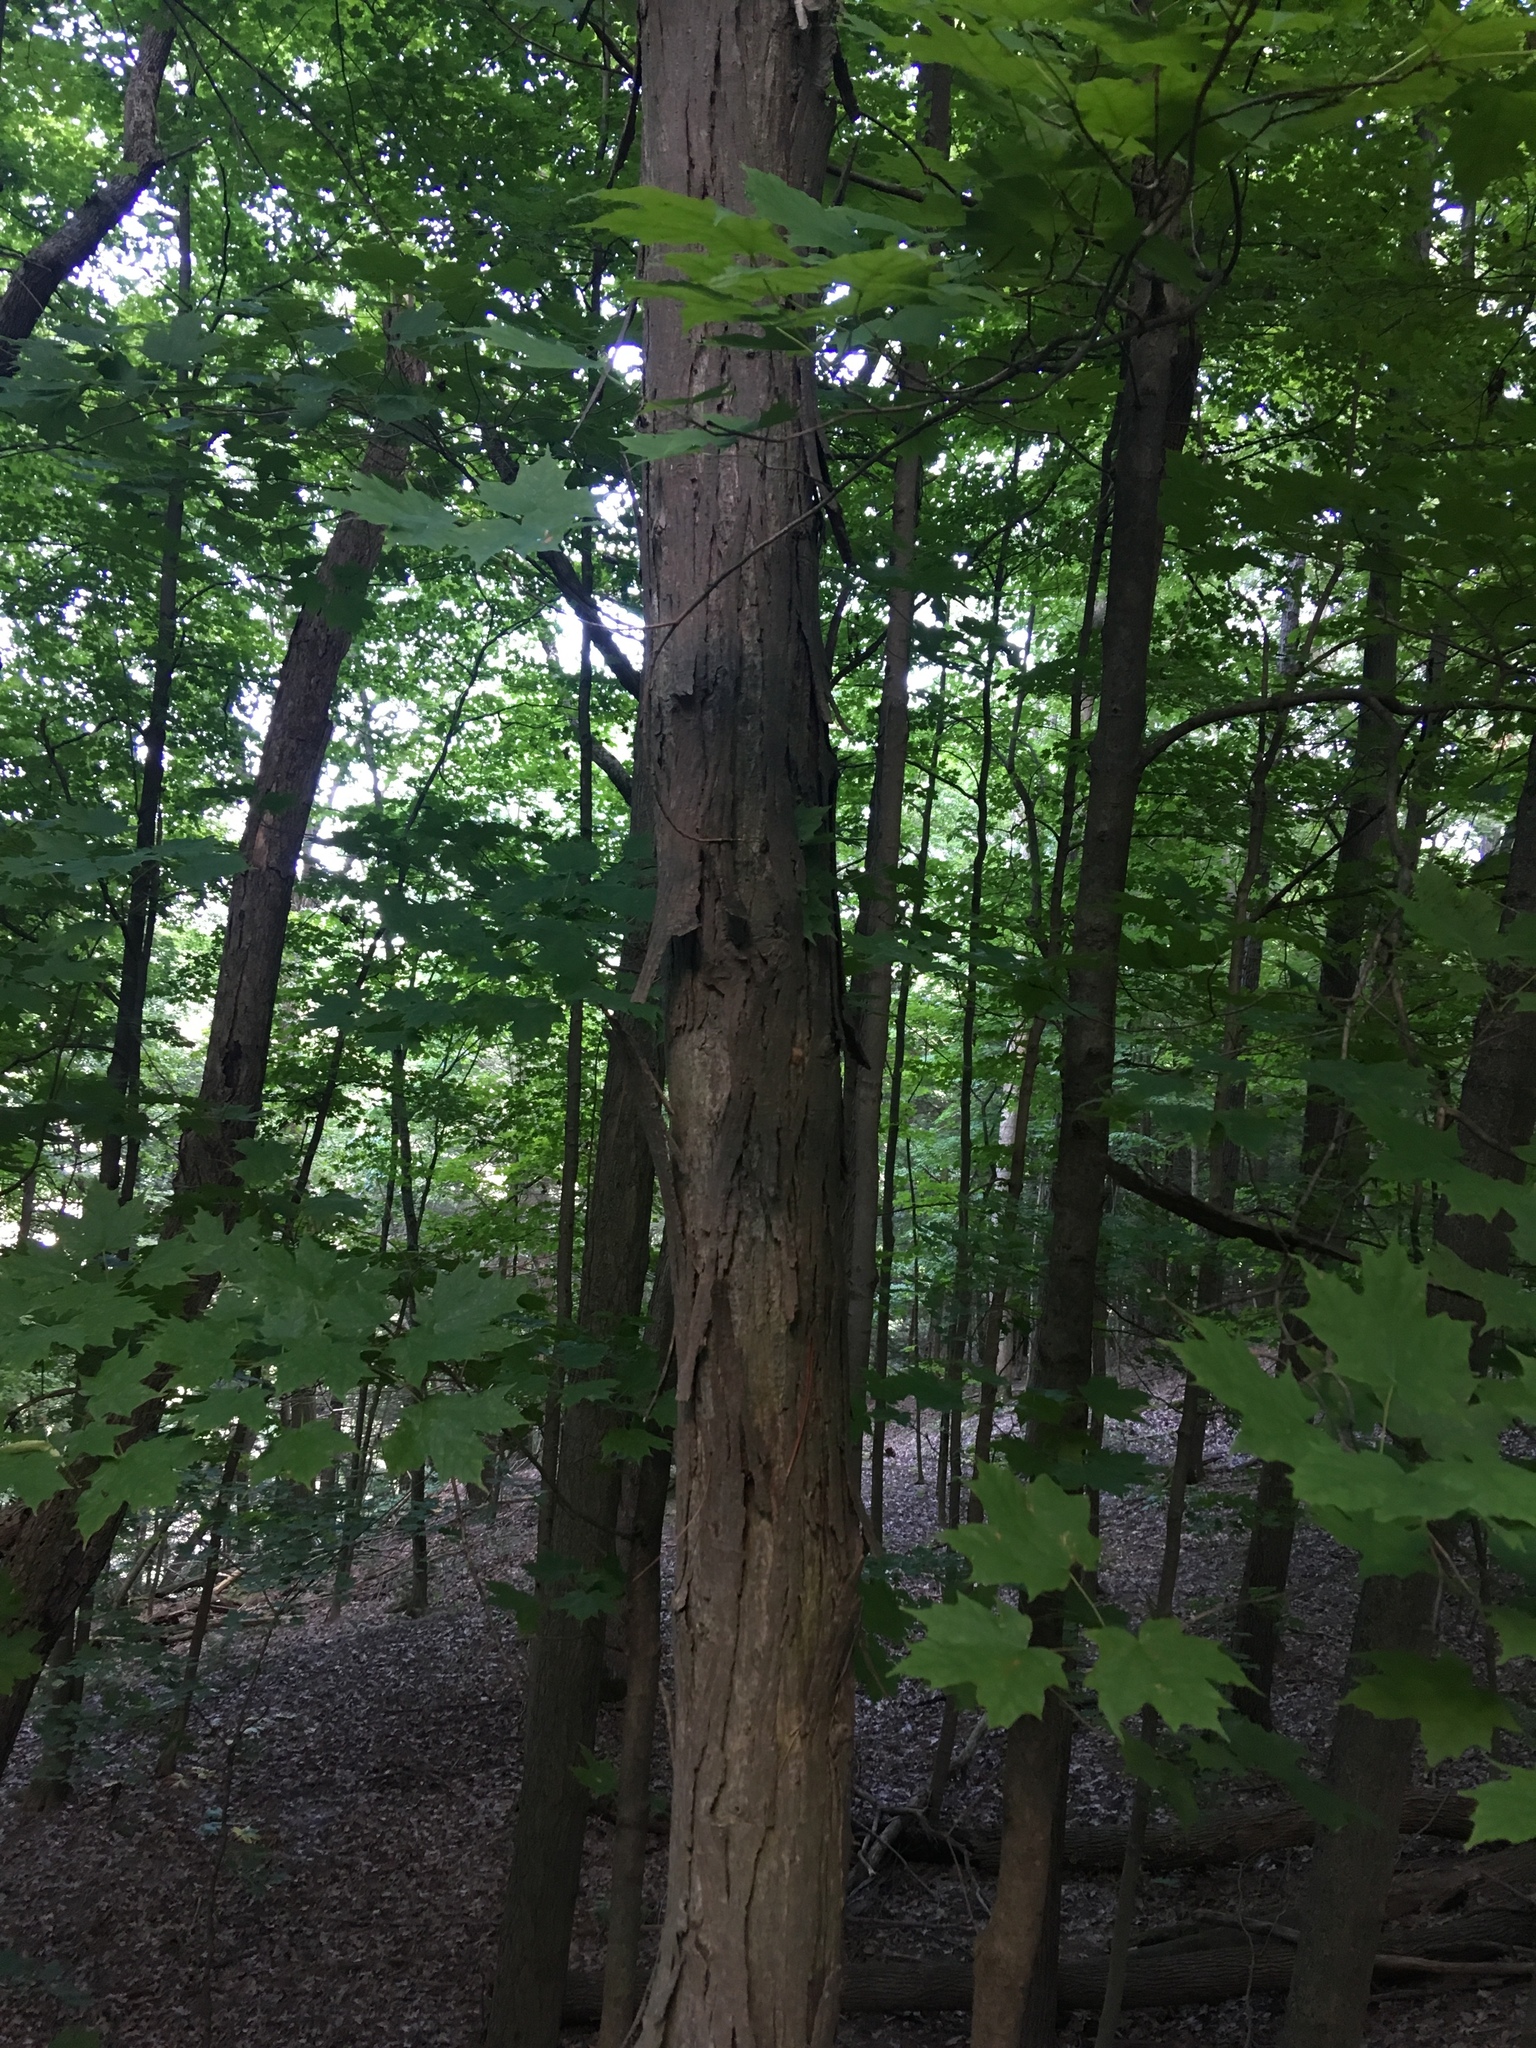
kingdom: Plantae
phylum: Tracheophyta
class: Magnoliopsida
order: Fagales
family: Juglandaceae
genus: Carya
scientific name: Carya ovata
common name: Shagbark hickory
